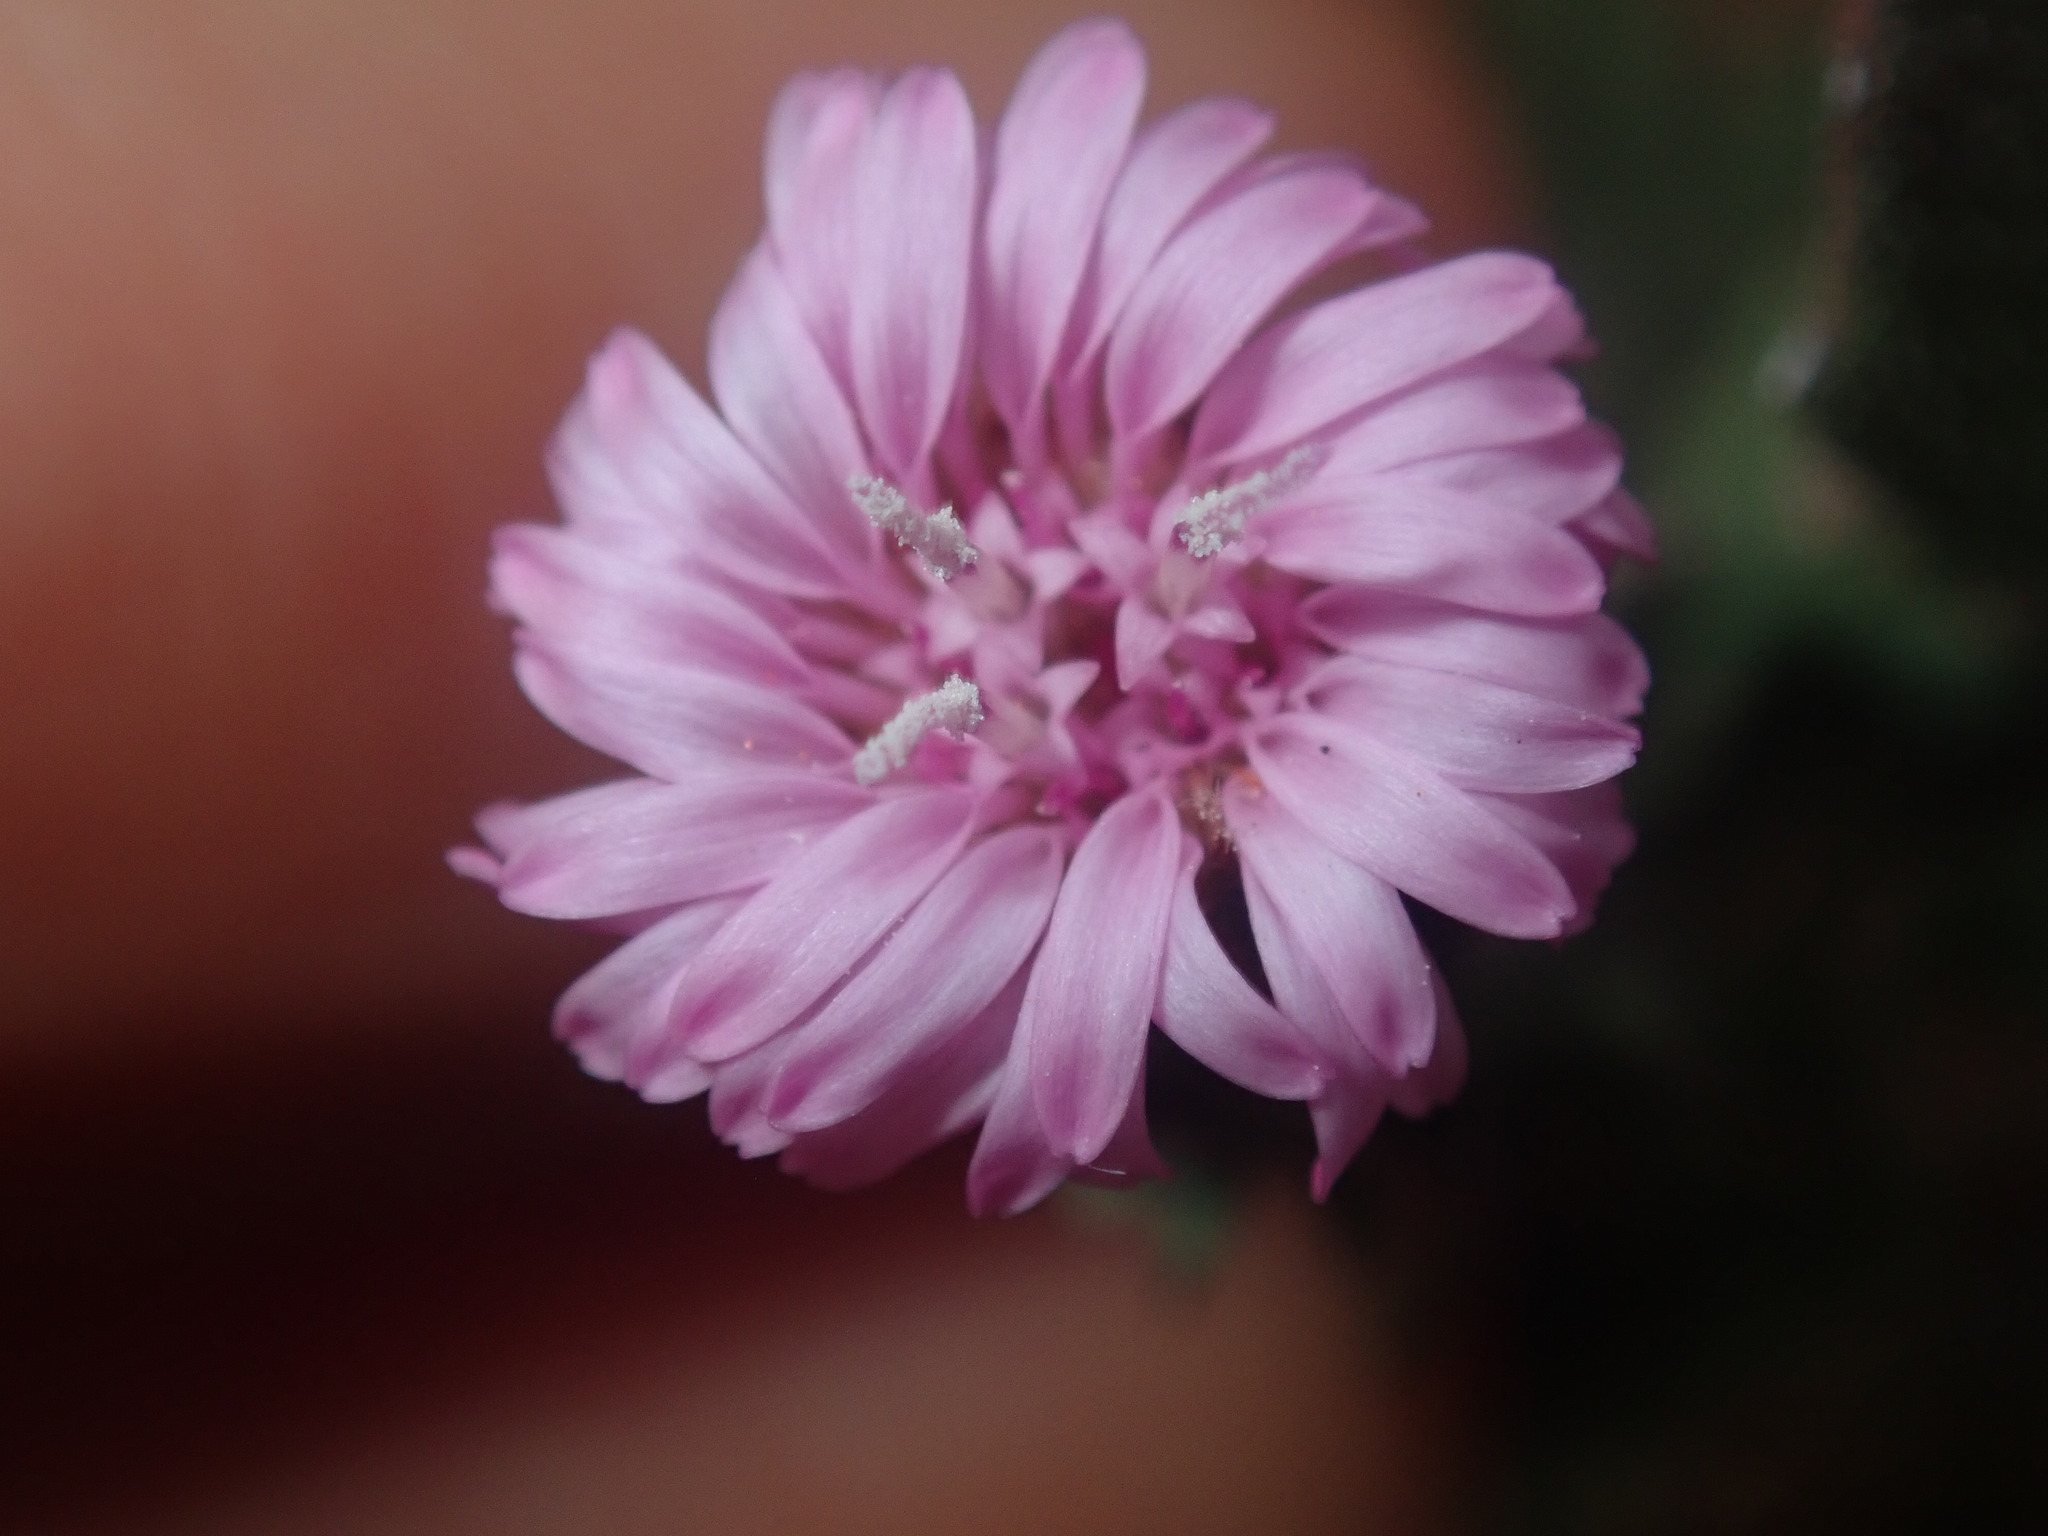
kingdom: Plantae
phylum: Tracheophyta
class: Magnoliopsida
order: Asterales
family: Asteraceae
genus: Streptoglossa
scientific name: Streptoglossa liatroides
